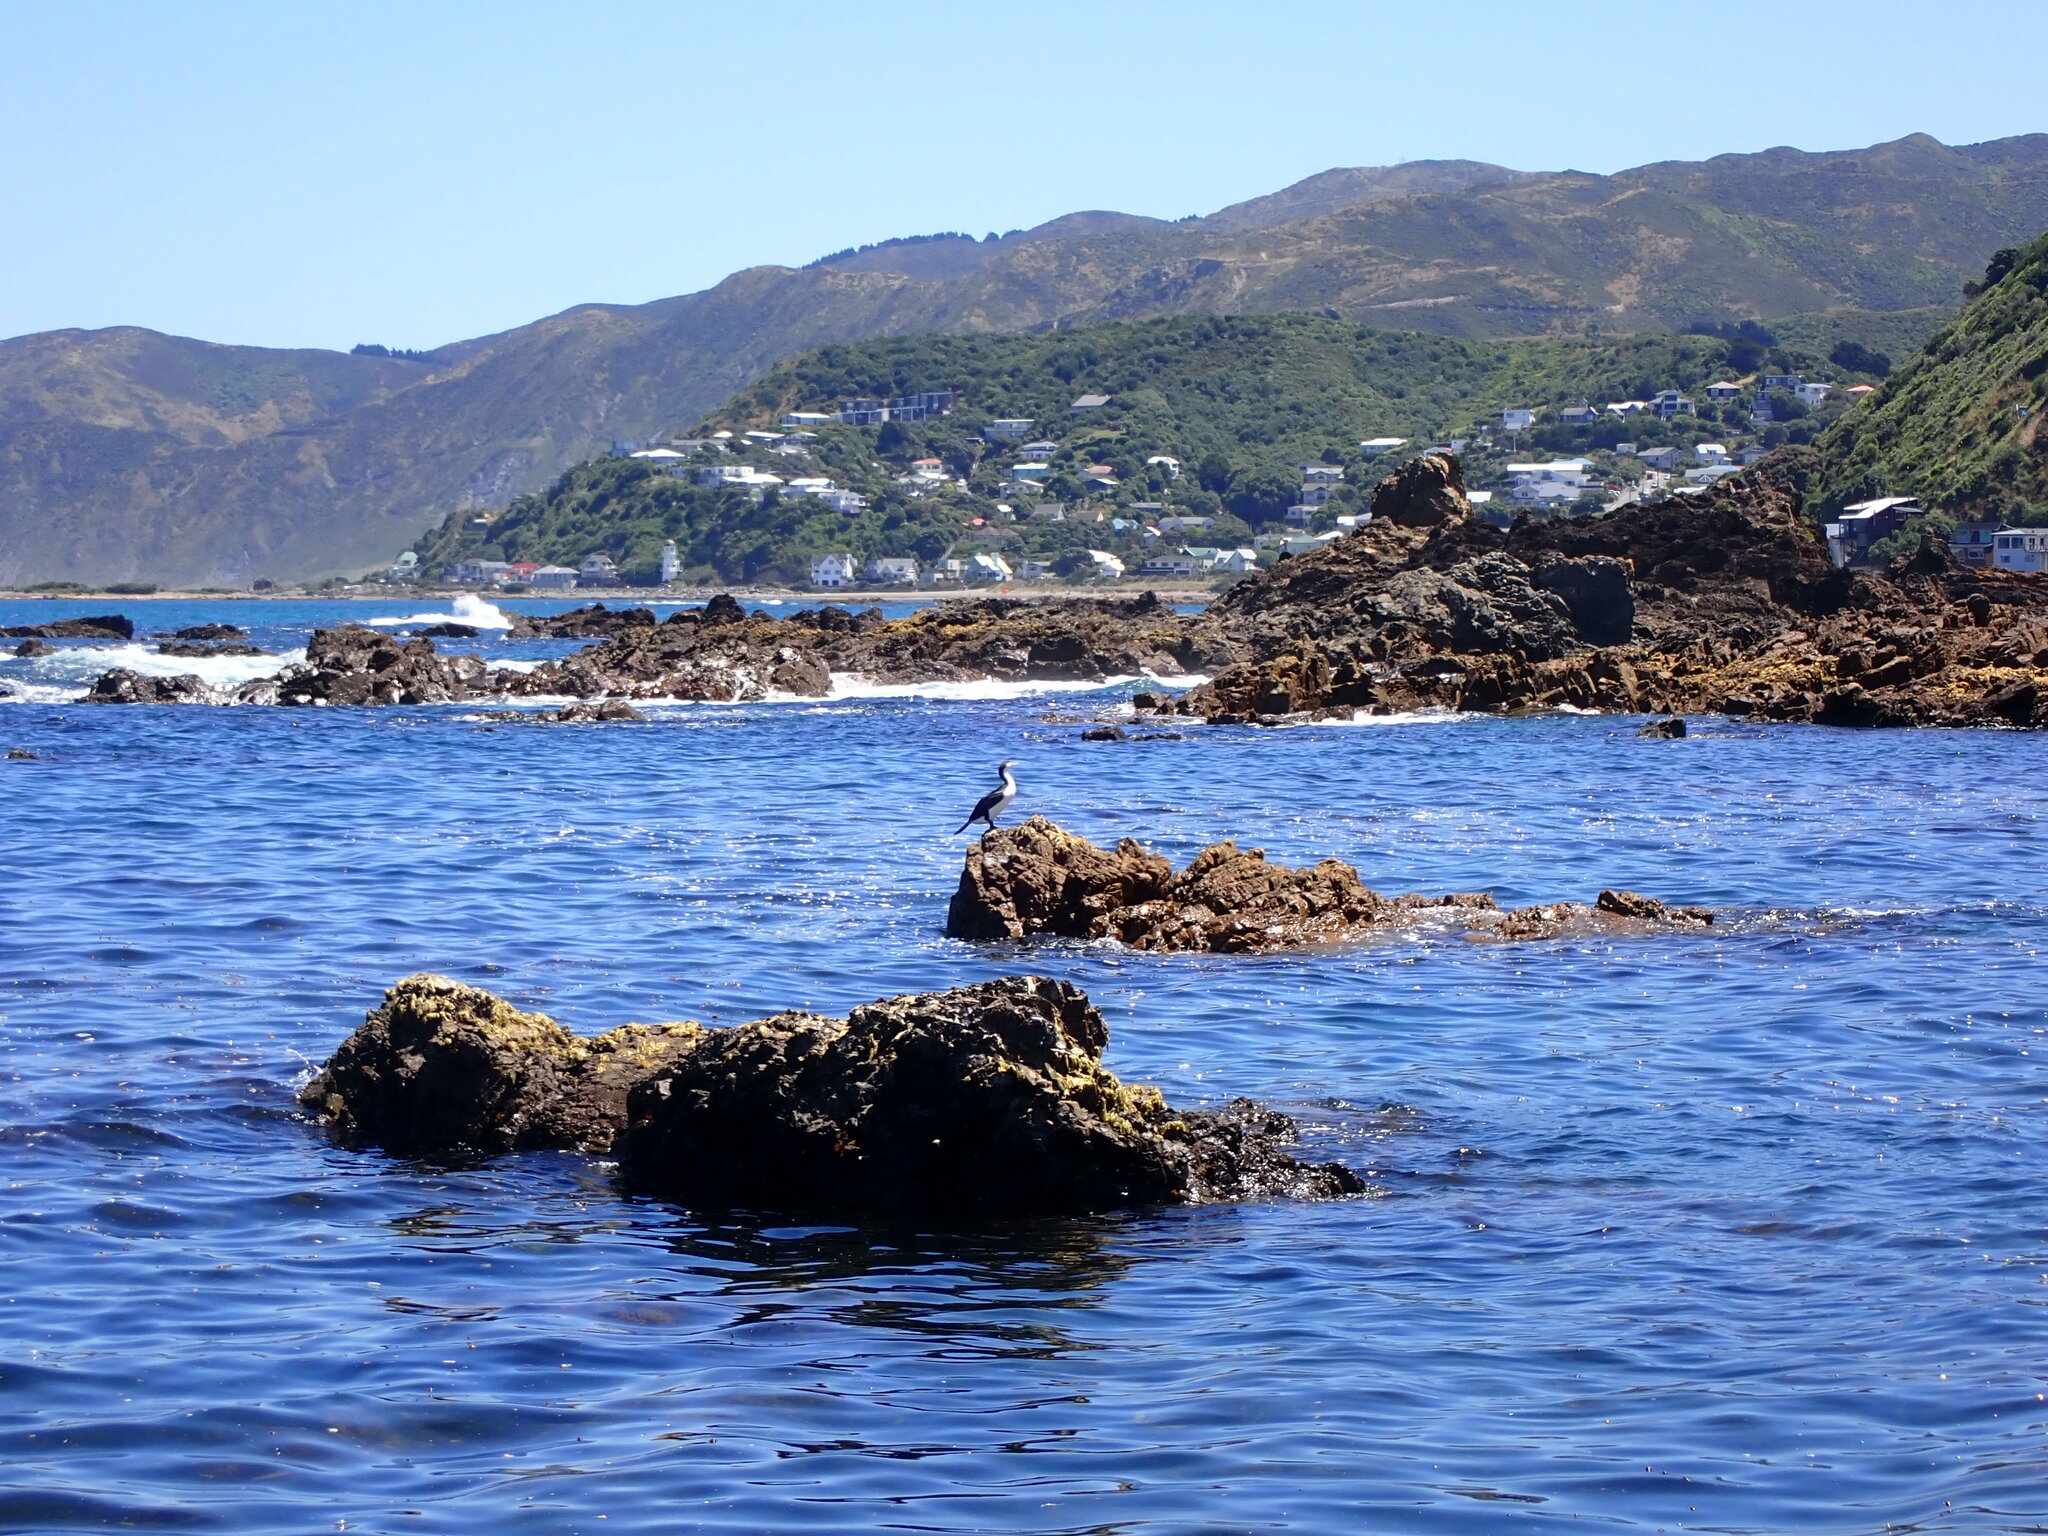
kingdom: Animalia
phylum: Chordata
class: Aves
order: Suliformes
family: Phalacrocoracidae
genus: Phalacrocorax
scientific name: Phalacrocorax varius
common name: Pied cormorant
